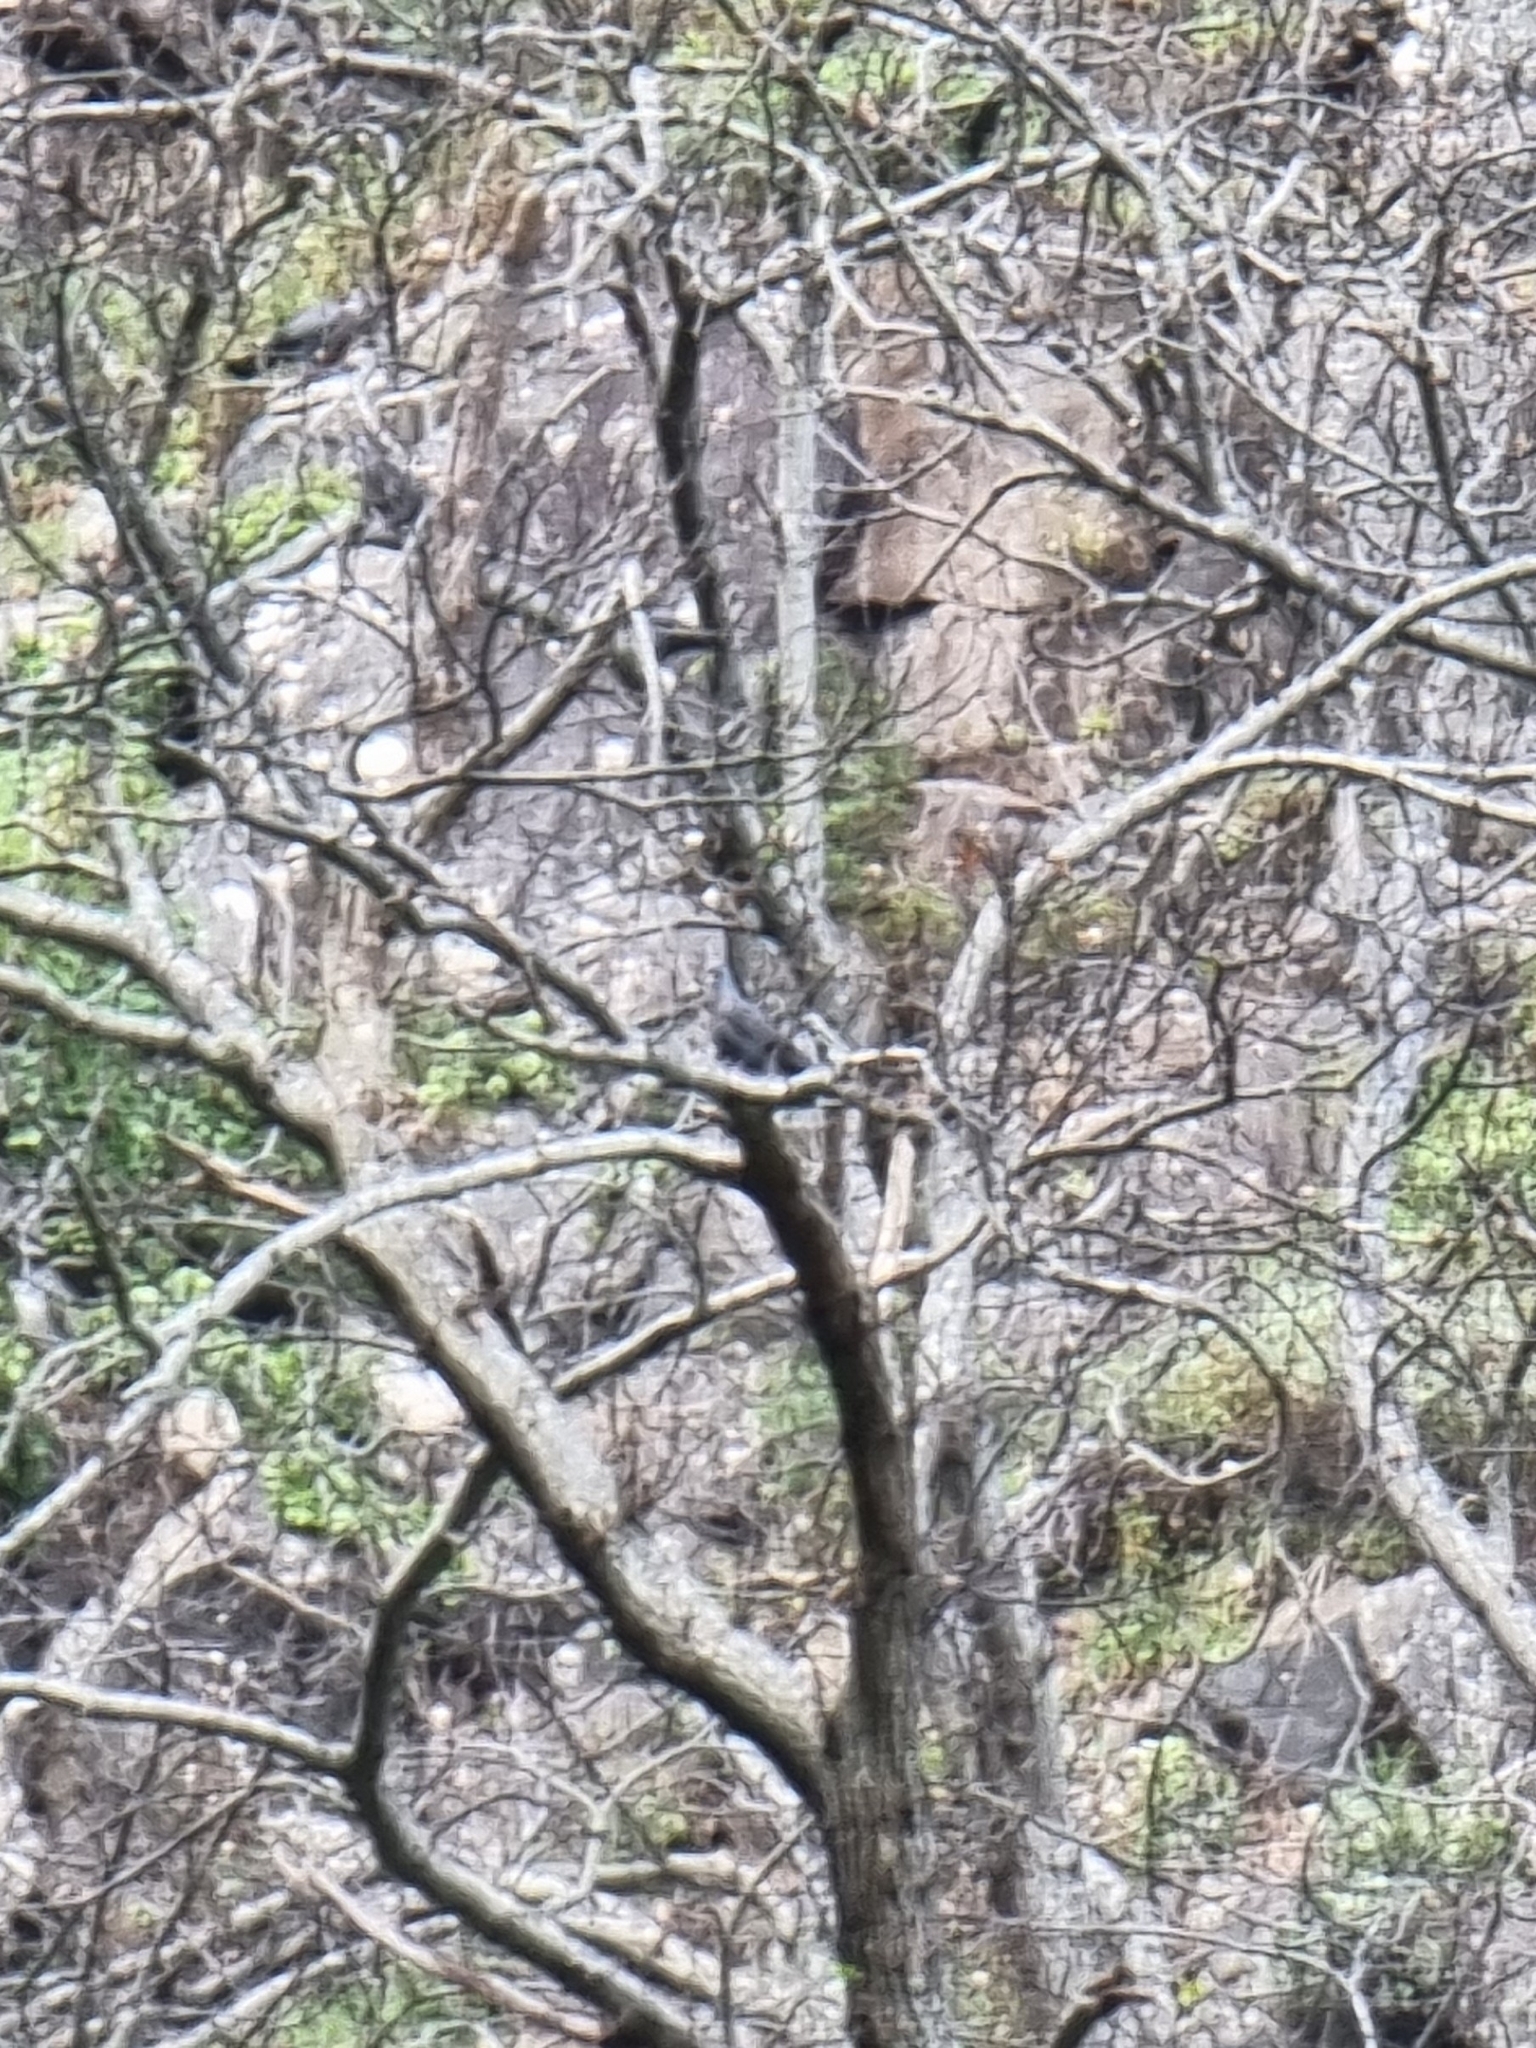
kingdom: Animalia
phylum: Chordata
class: Aves
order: Columbiformes
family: Columbidae
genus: Columba
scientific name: Columba trocaz
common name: Trocaz pigeon
